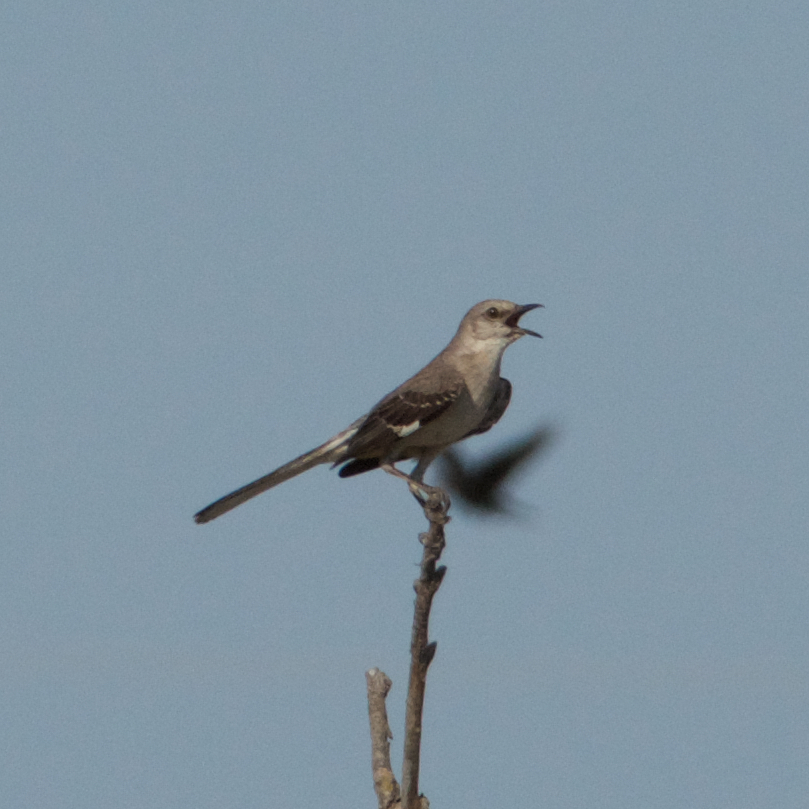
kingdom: Animalia
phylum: Chordata
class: Aves
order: Passeriformes
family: Mimidae
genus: Mimus
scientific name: Mimus polyglottos
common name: Northern mockingbird
